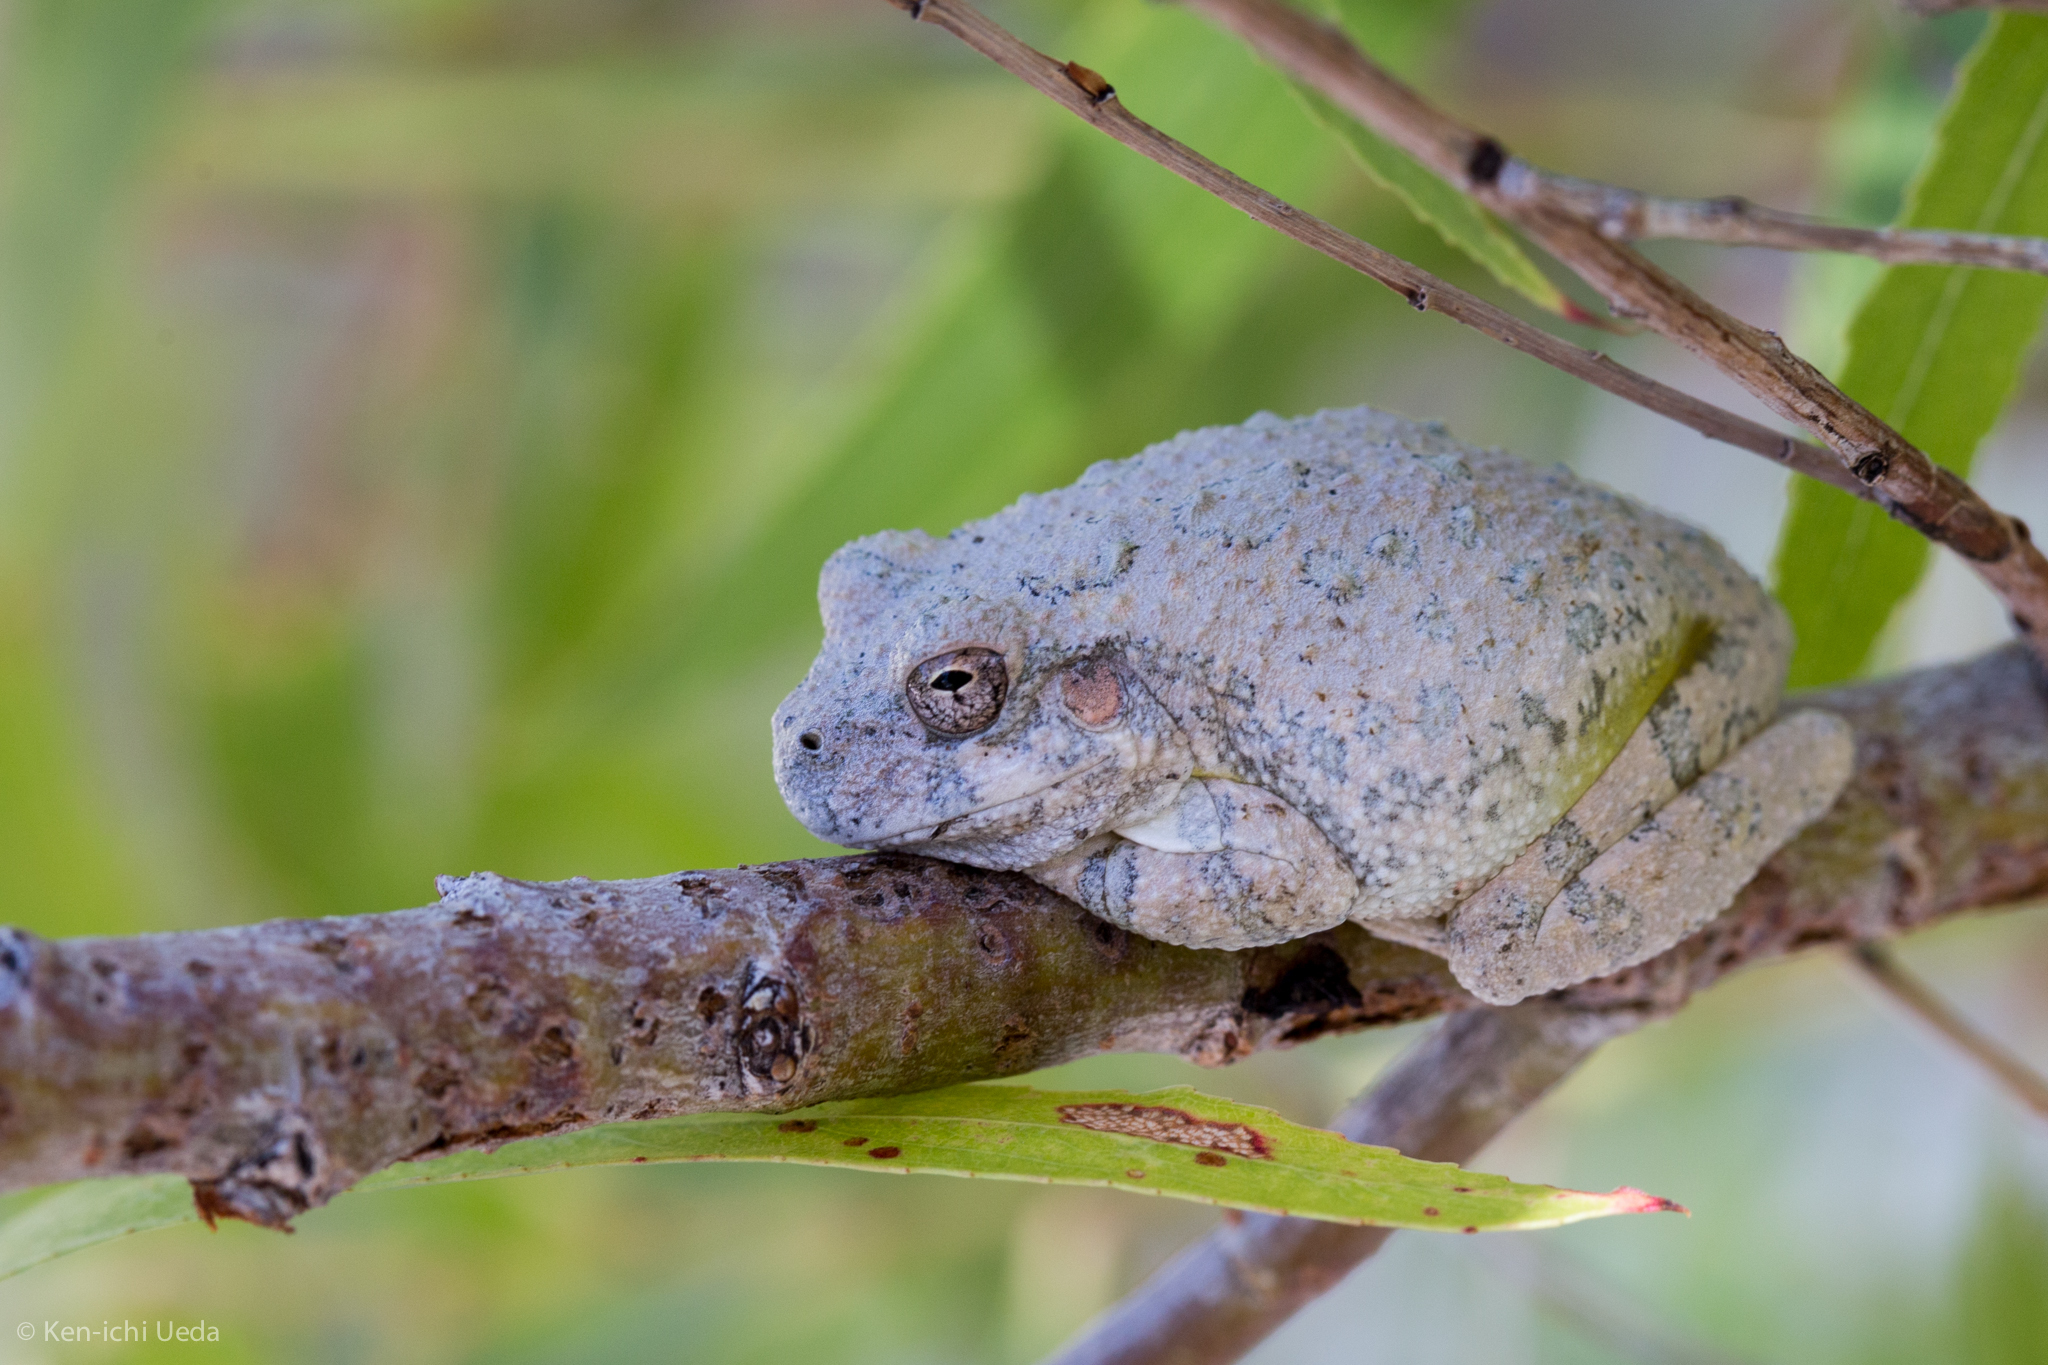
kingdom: Animalia
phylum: Chordata
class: Amphibia
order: Anura
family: Hylidae
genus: Dryophytes
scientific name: Dryophytes arenicolor
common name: Canyon treefrog
